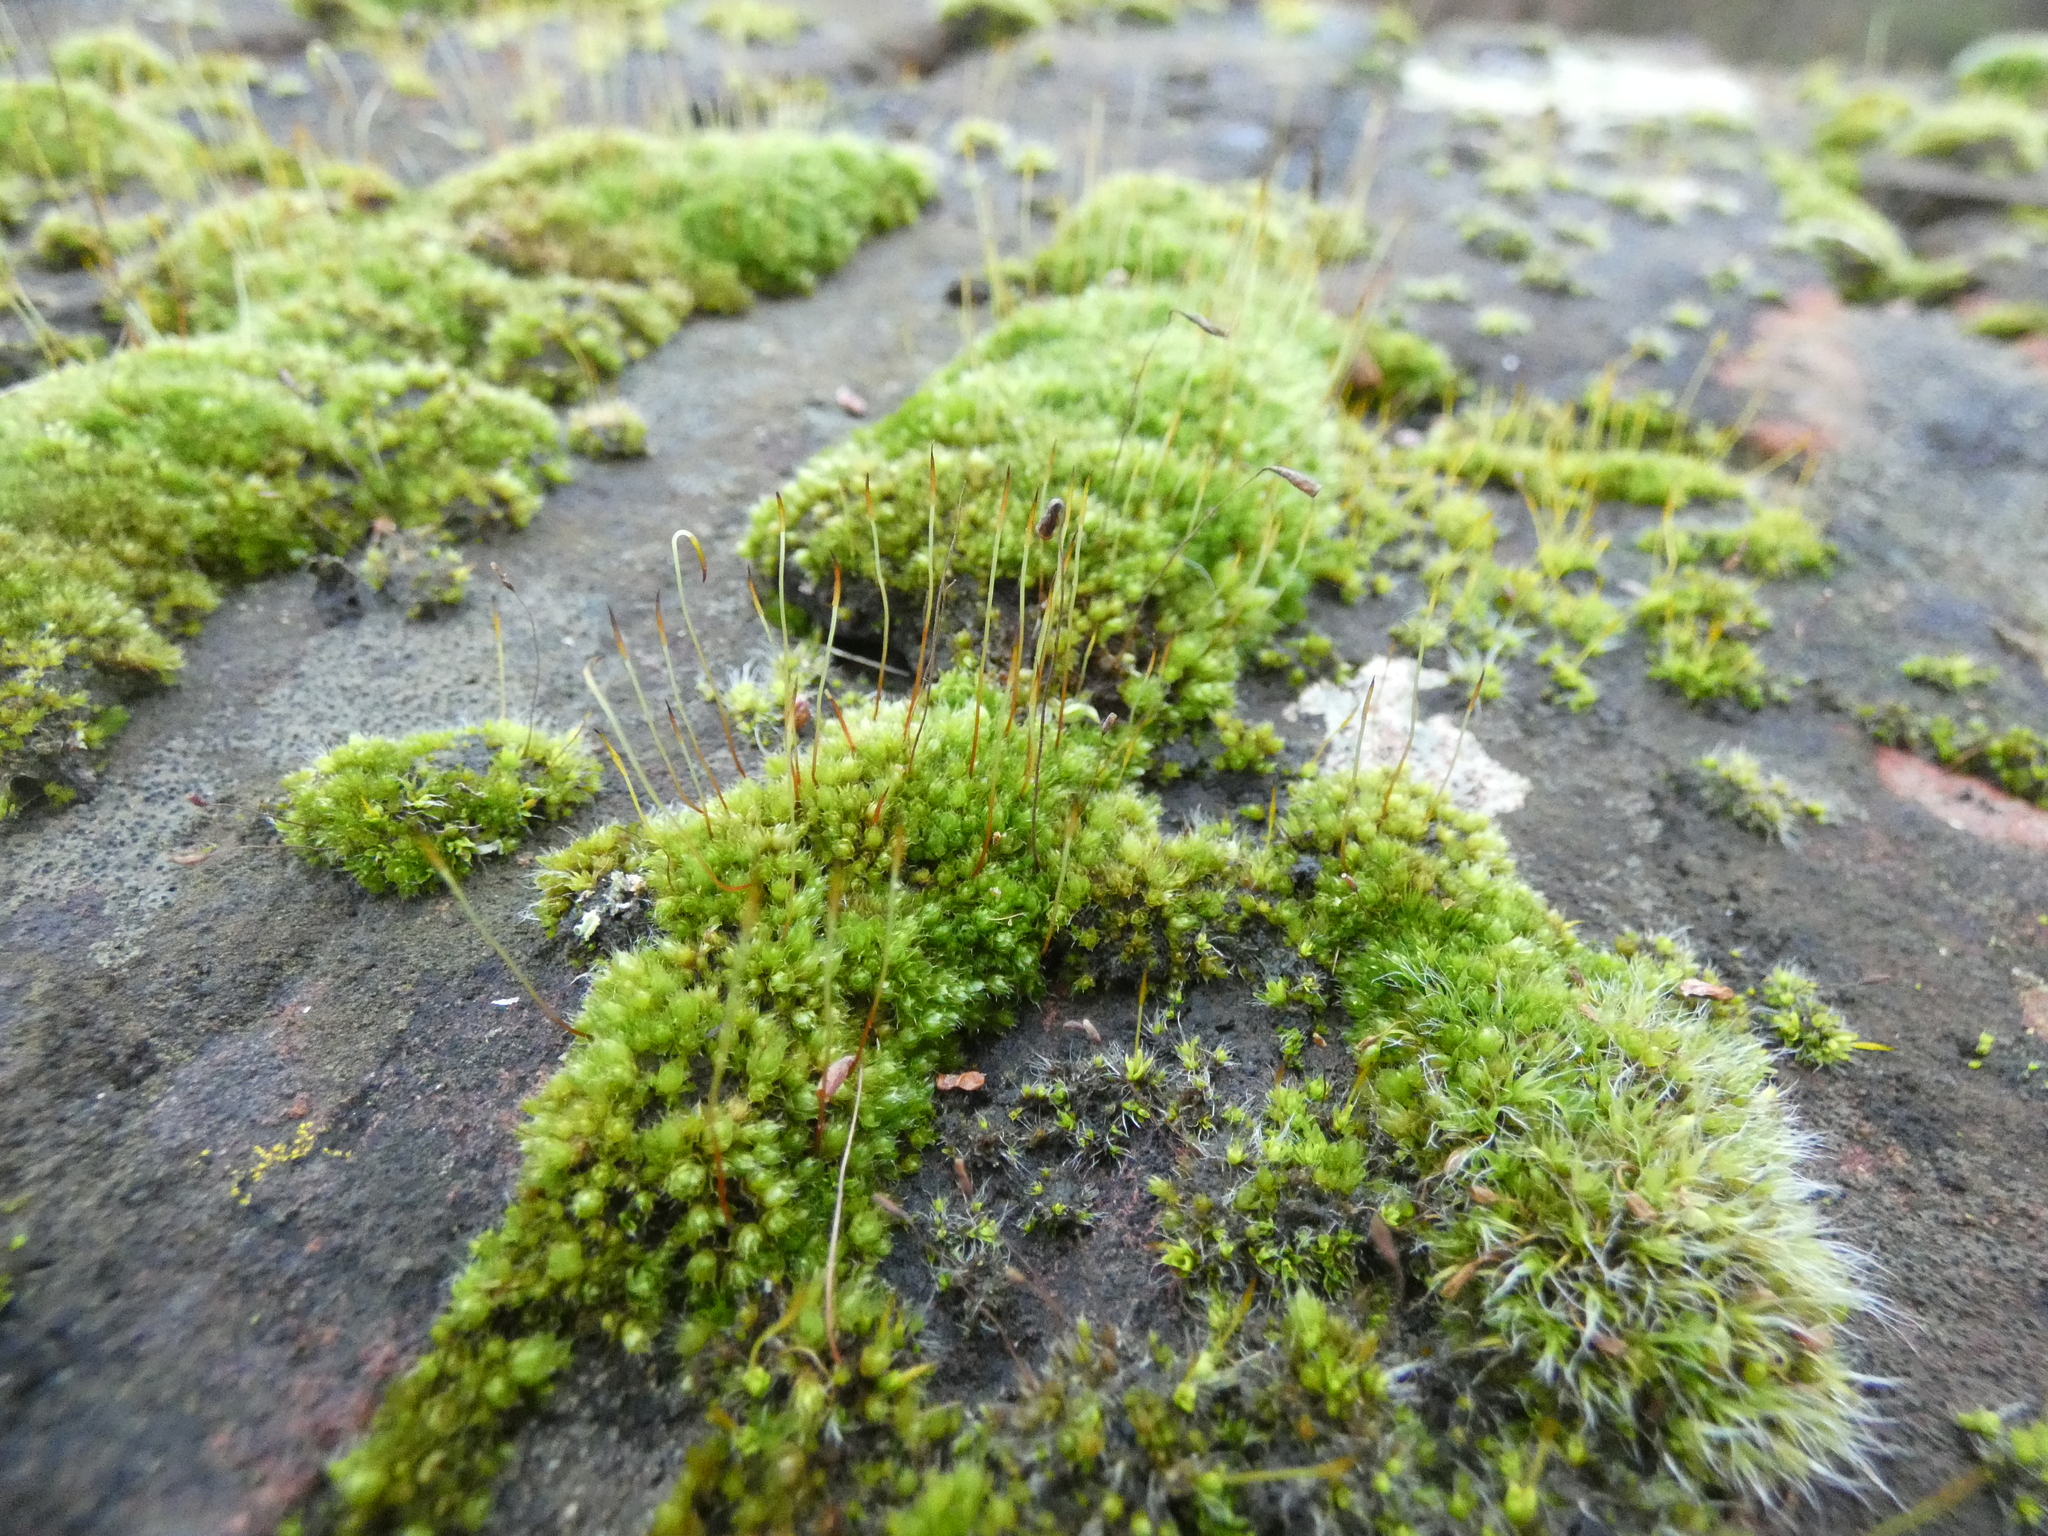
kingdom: Plantae
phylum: Bryophyta
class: Bryopsida
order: Bryales
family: Bryaceae
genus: Rosulabryum
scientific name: Rosulabryum capillare
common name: Capillary thread-moss
